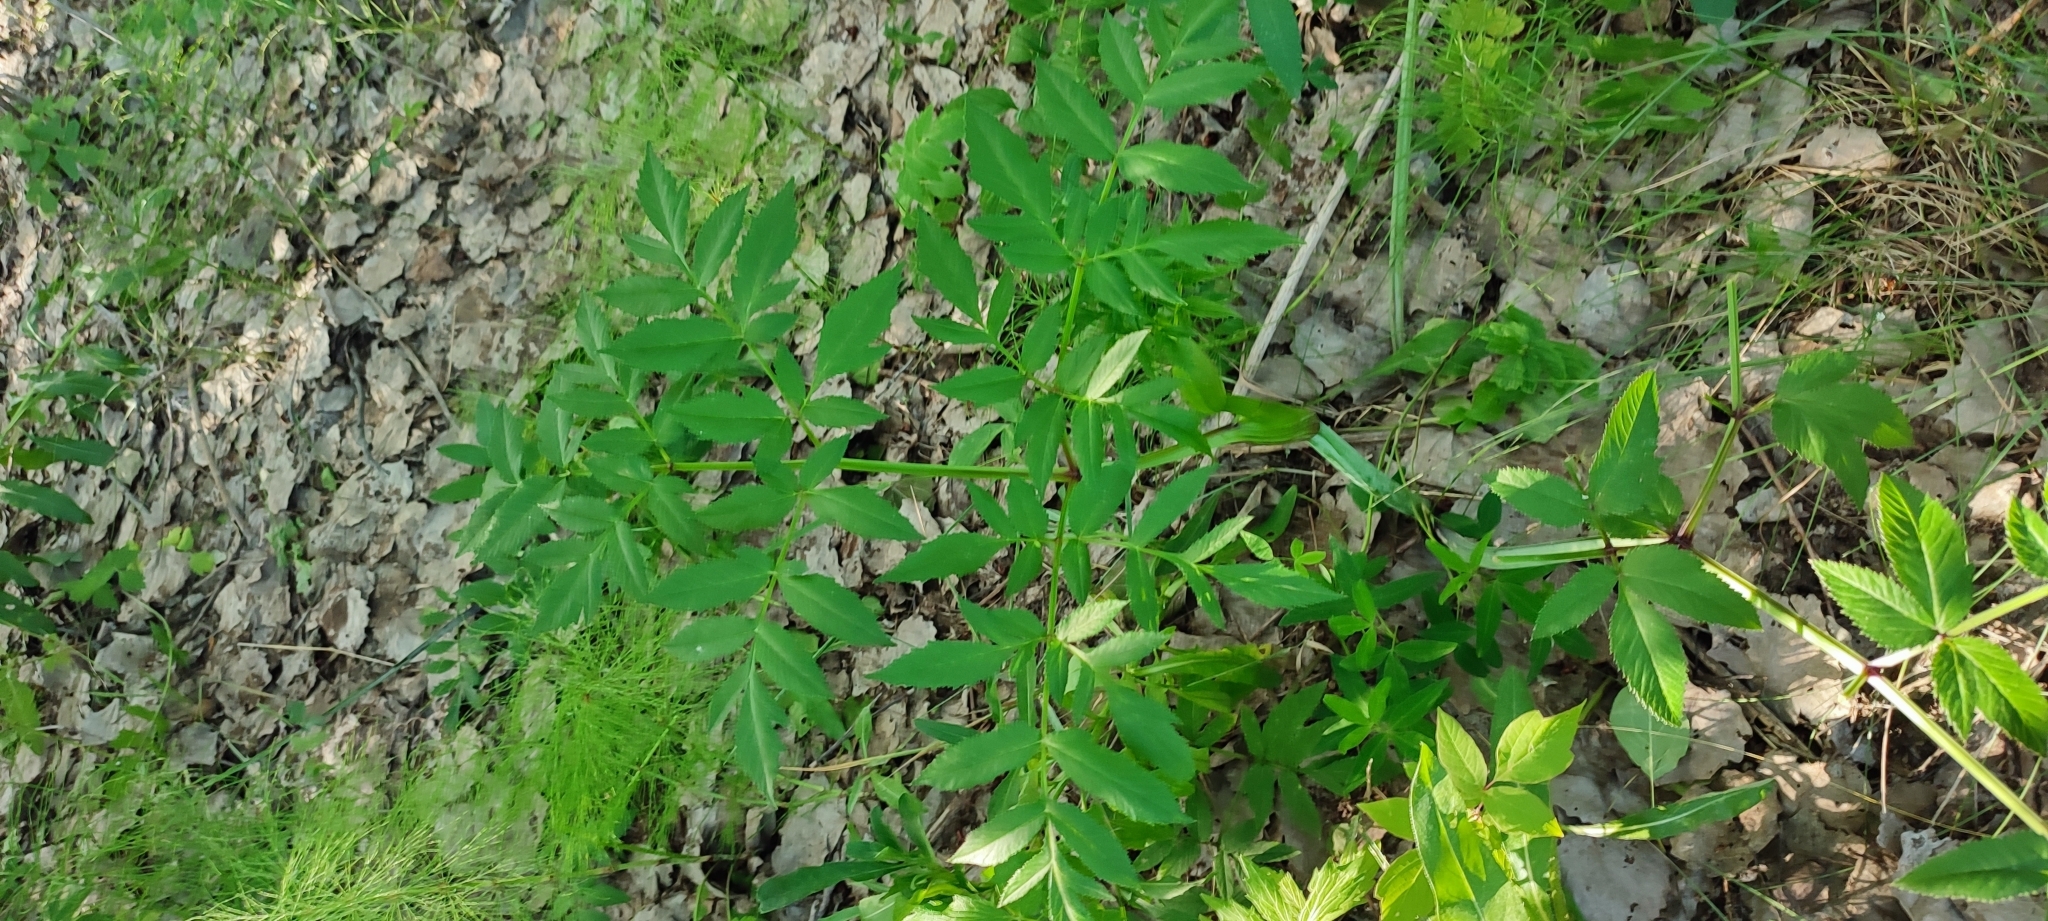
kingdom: Plantae
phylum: Tracheophyta
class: Magnoliopsida
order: Apiales
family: Apiaceae
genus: Angelica
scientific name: Angelica sylvestris
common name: Wild angelica
